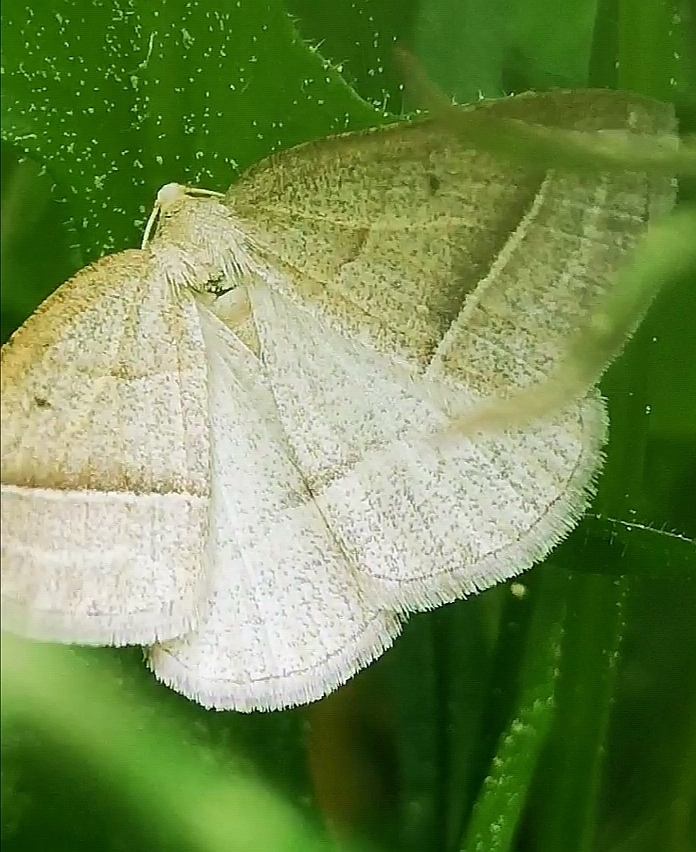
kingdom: Animalia
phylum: Arthropoda
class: Insecta
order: Lepidoptera
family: Pterophoridae
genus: Pterophorus
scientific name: Pterophorus Petrophora chlorosata
